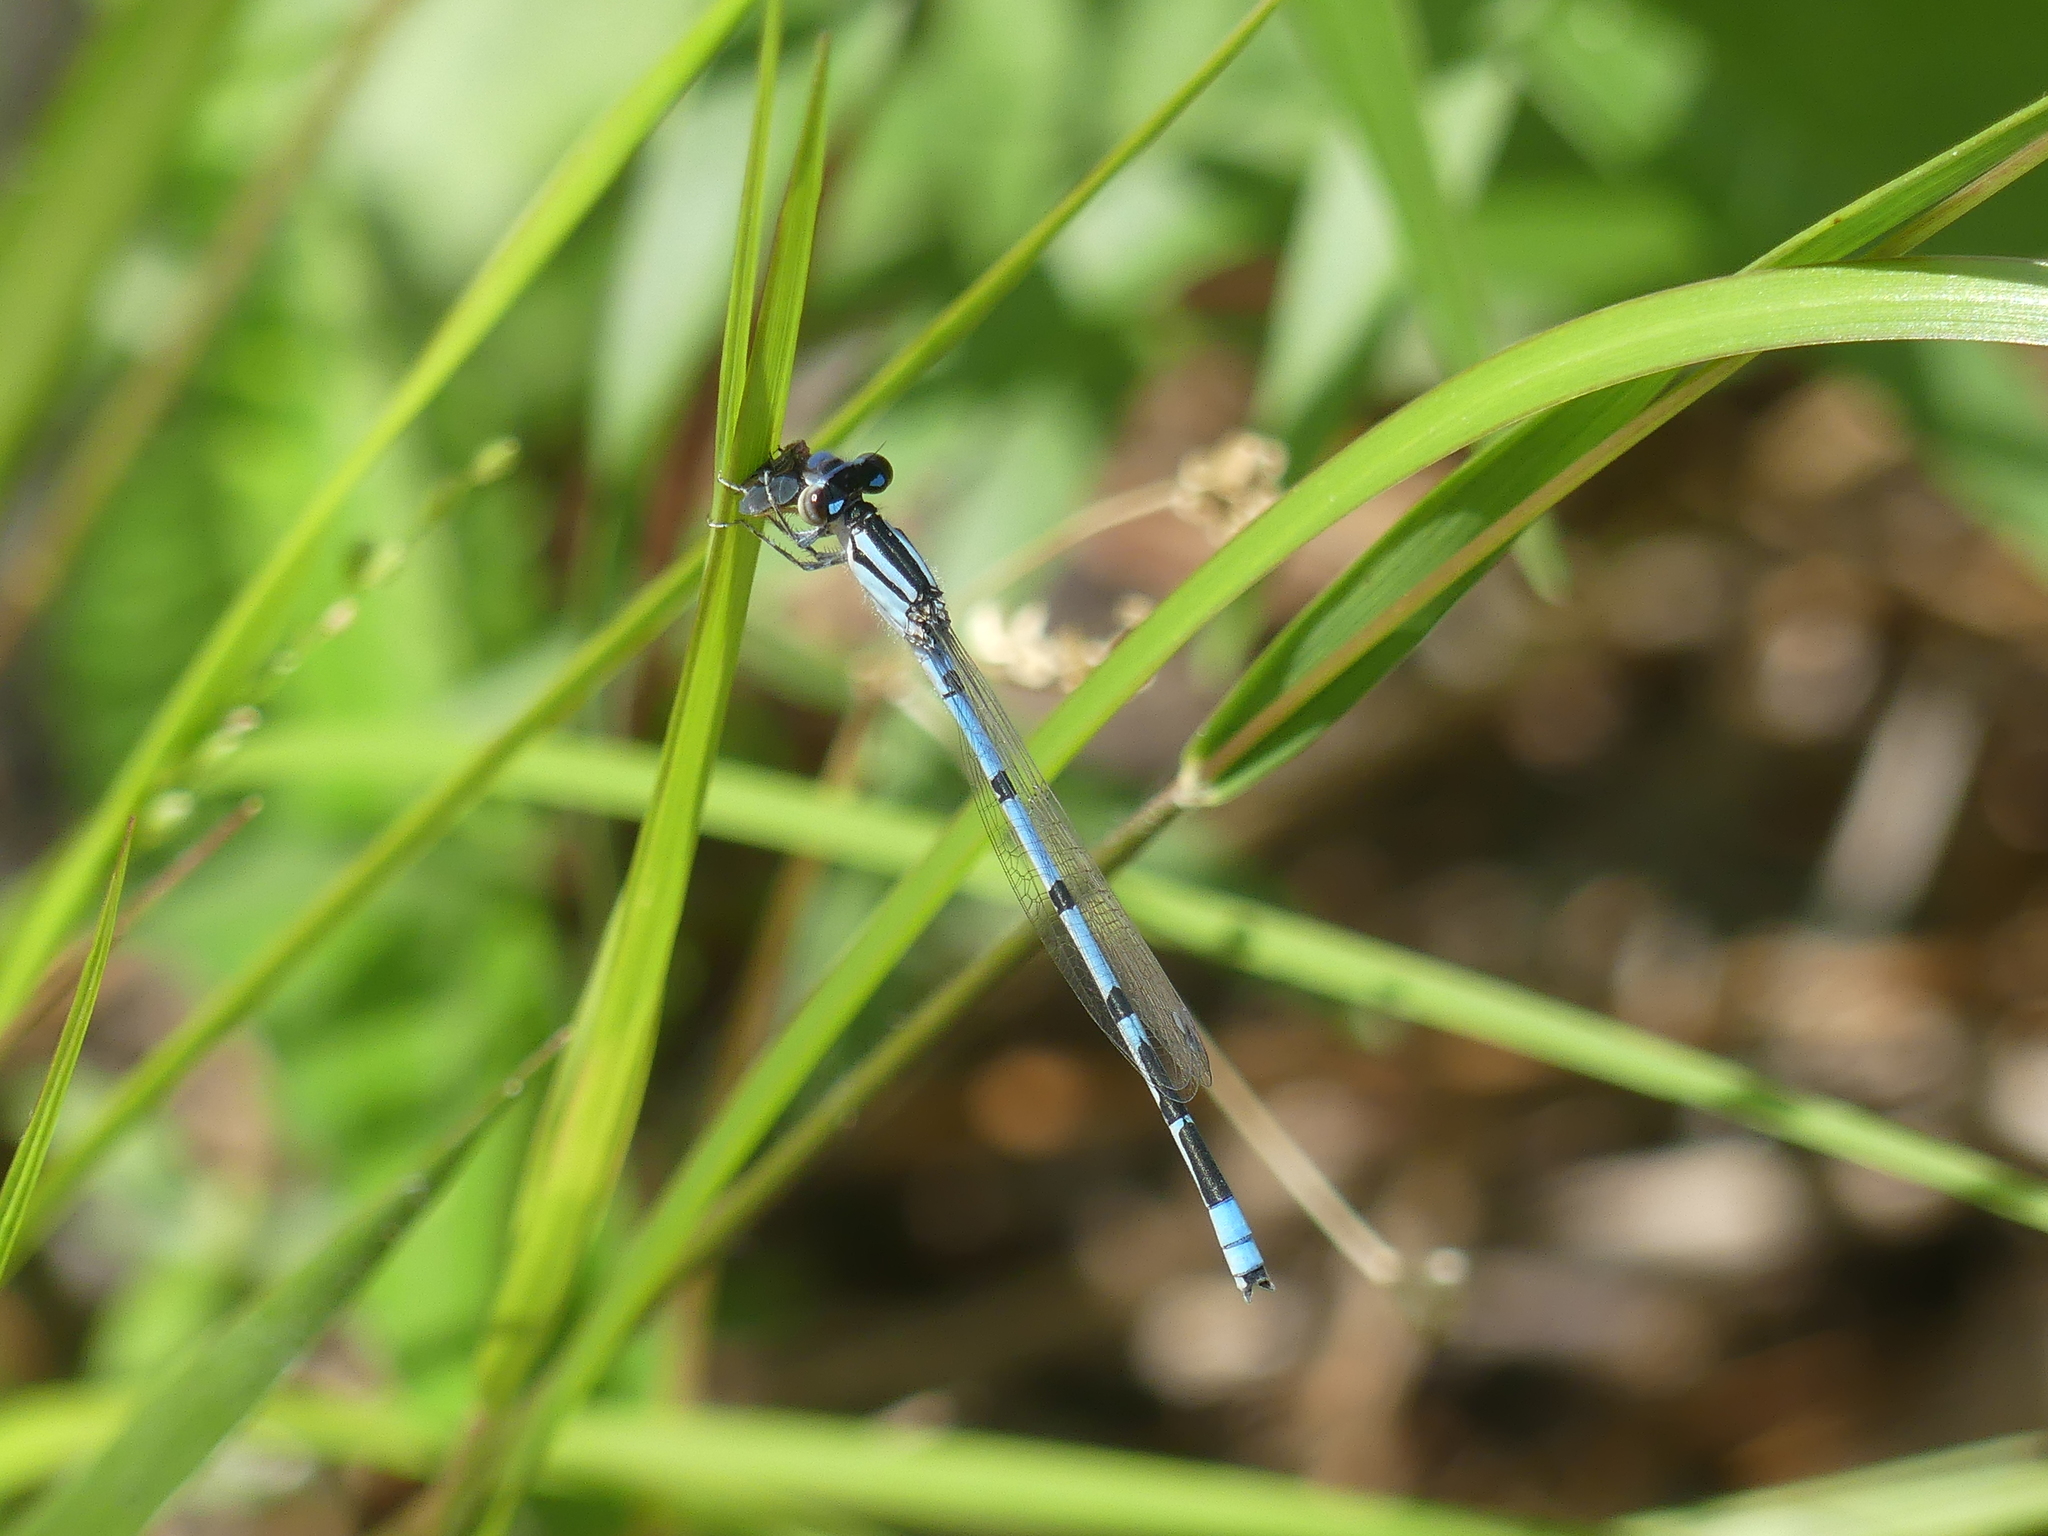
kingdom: Animalia
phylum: Arthropoda
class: Insecta
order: Odonata
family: Coenagrionidae
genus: Enallagma
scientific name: Enallagma civile
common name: Damselfly
